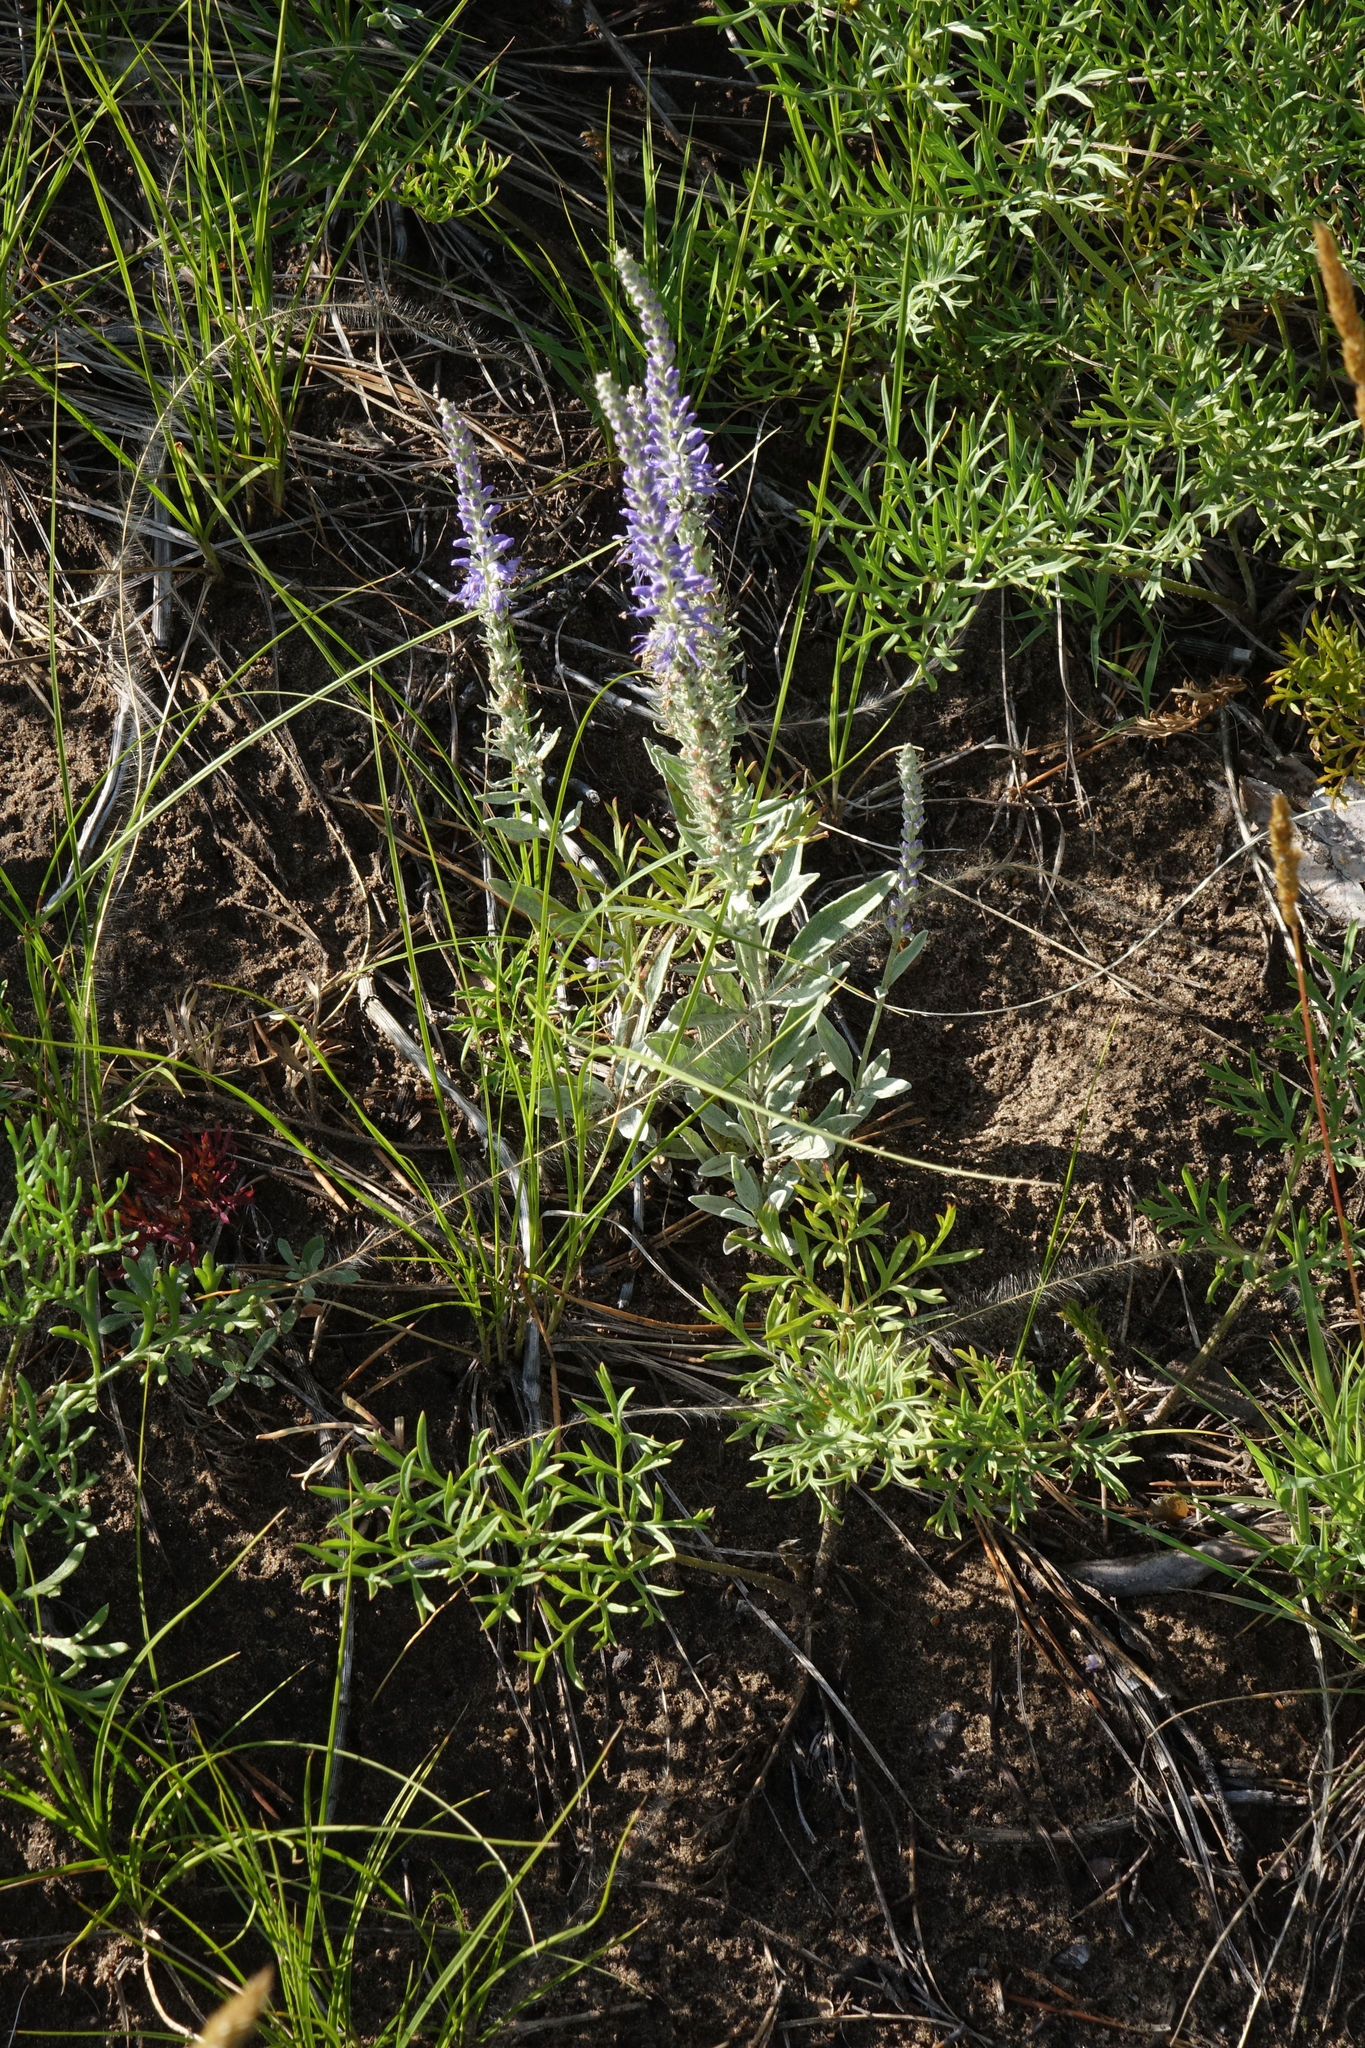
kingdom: Plantae
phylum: Tracheophyta
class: Magnoliopsida
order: Lamiales
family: Plantaginaceae
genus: Veronica
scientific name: Veronica incana
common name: Silver speedwell
